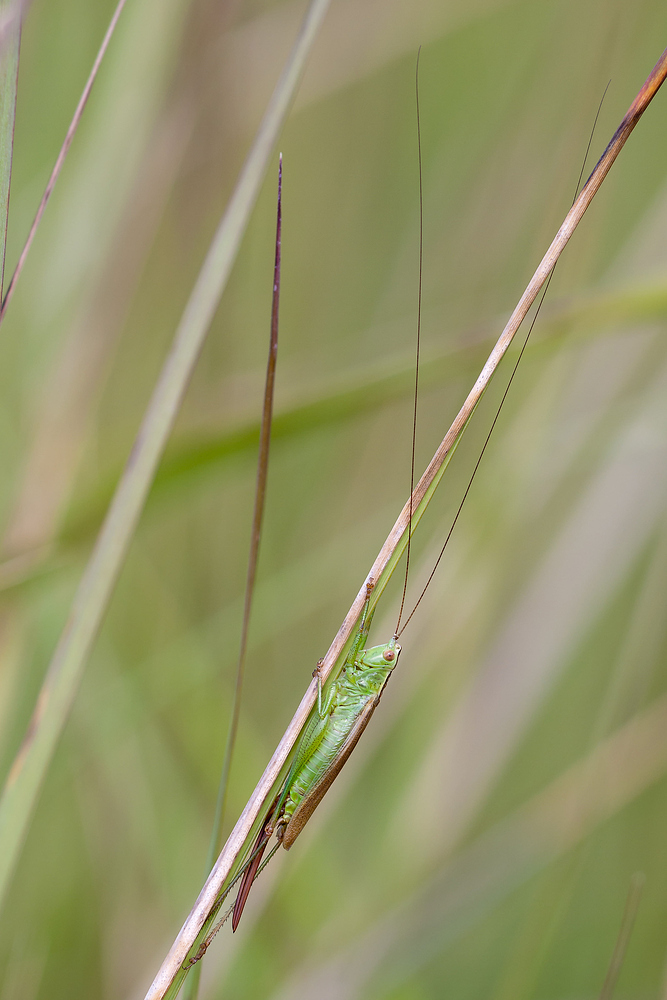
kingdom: Animalia
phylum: Arthropoda
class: Insecta
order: Orthoptera
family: Tettigoniidae
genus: Conocephalus
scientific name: Conocephalus fuscus
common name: Long-winged conehead
